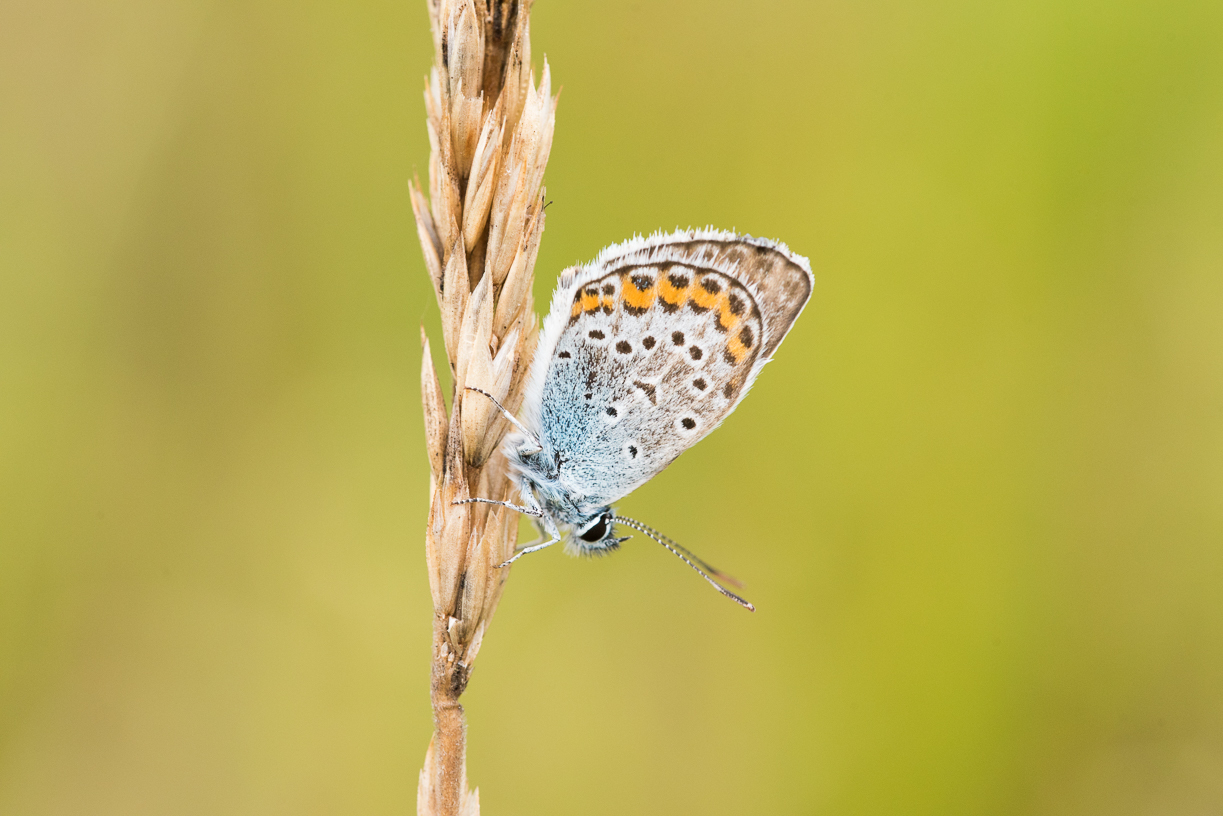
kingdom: Animalia
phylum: Arthropoda
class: Insecta
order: Lepidoptera
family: Lycaenidae
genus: Plebejus
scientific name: Plebejus argus
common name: Silver-studded blue
